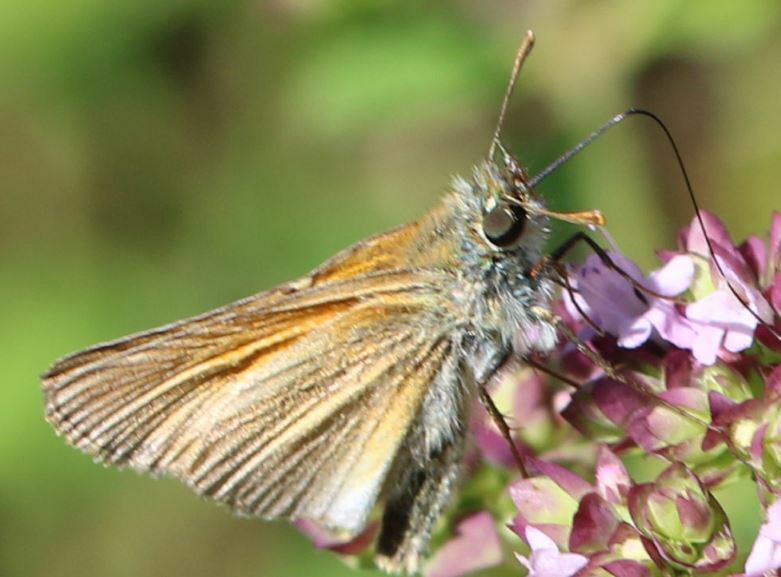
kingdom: Animalia
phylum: Arthropoda
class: Insecta
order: Lepidoptera
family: Hesperiidae
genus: Thymelicus
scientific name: Thymelicus sylvestris
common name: Small skipper
